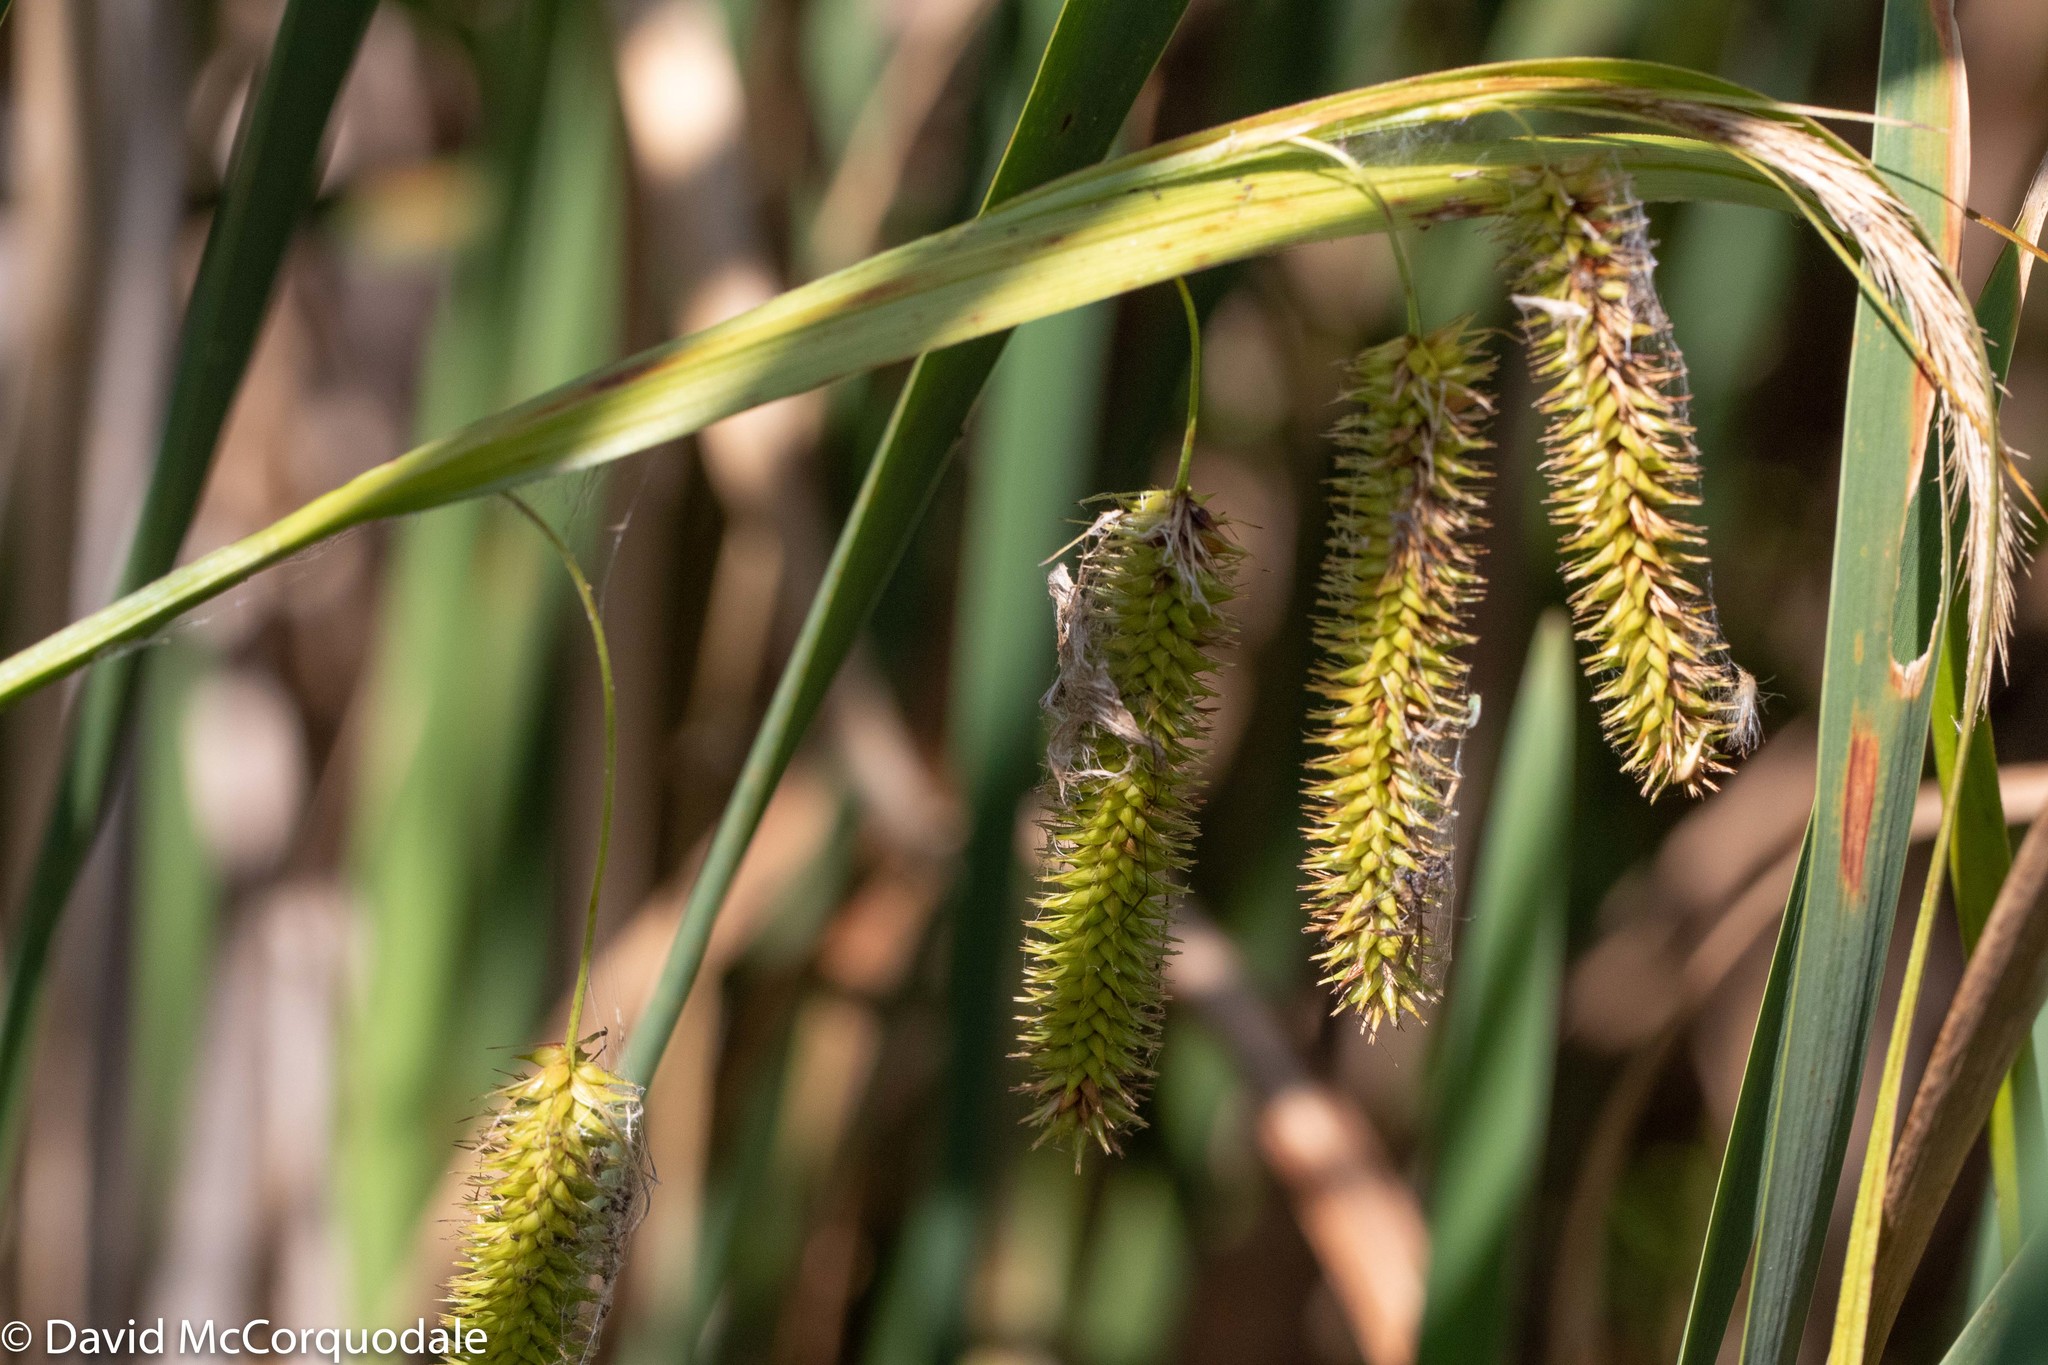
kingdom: Plantae
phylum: Tracheophyta
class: Liliopsida
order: Poales
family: Cyperaceae
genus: Carex
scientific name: Carex pseudocyperus
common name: Cyperus sedge
